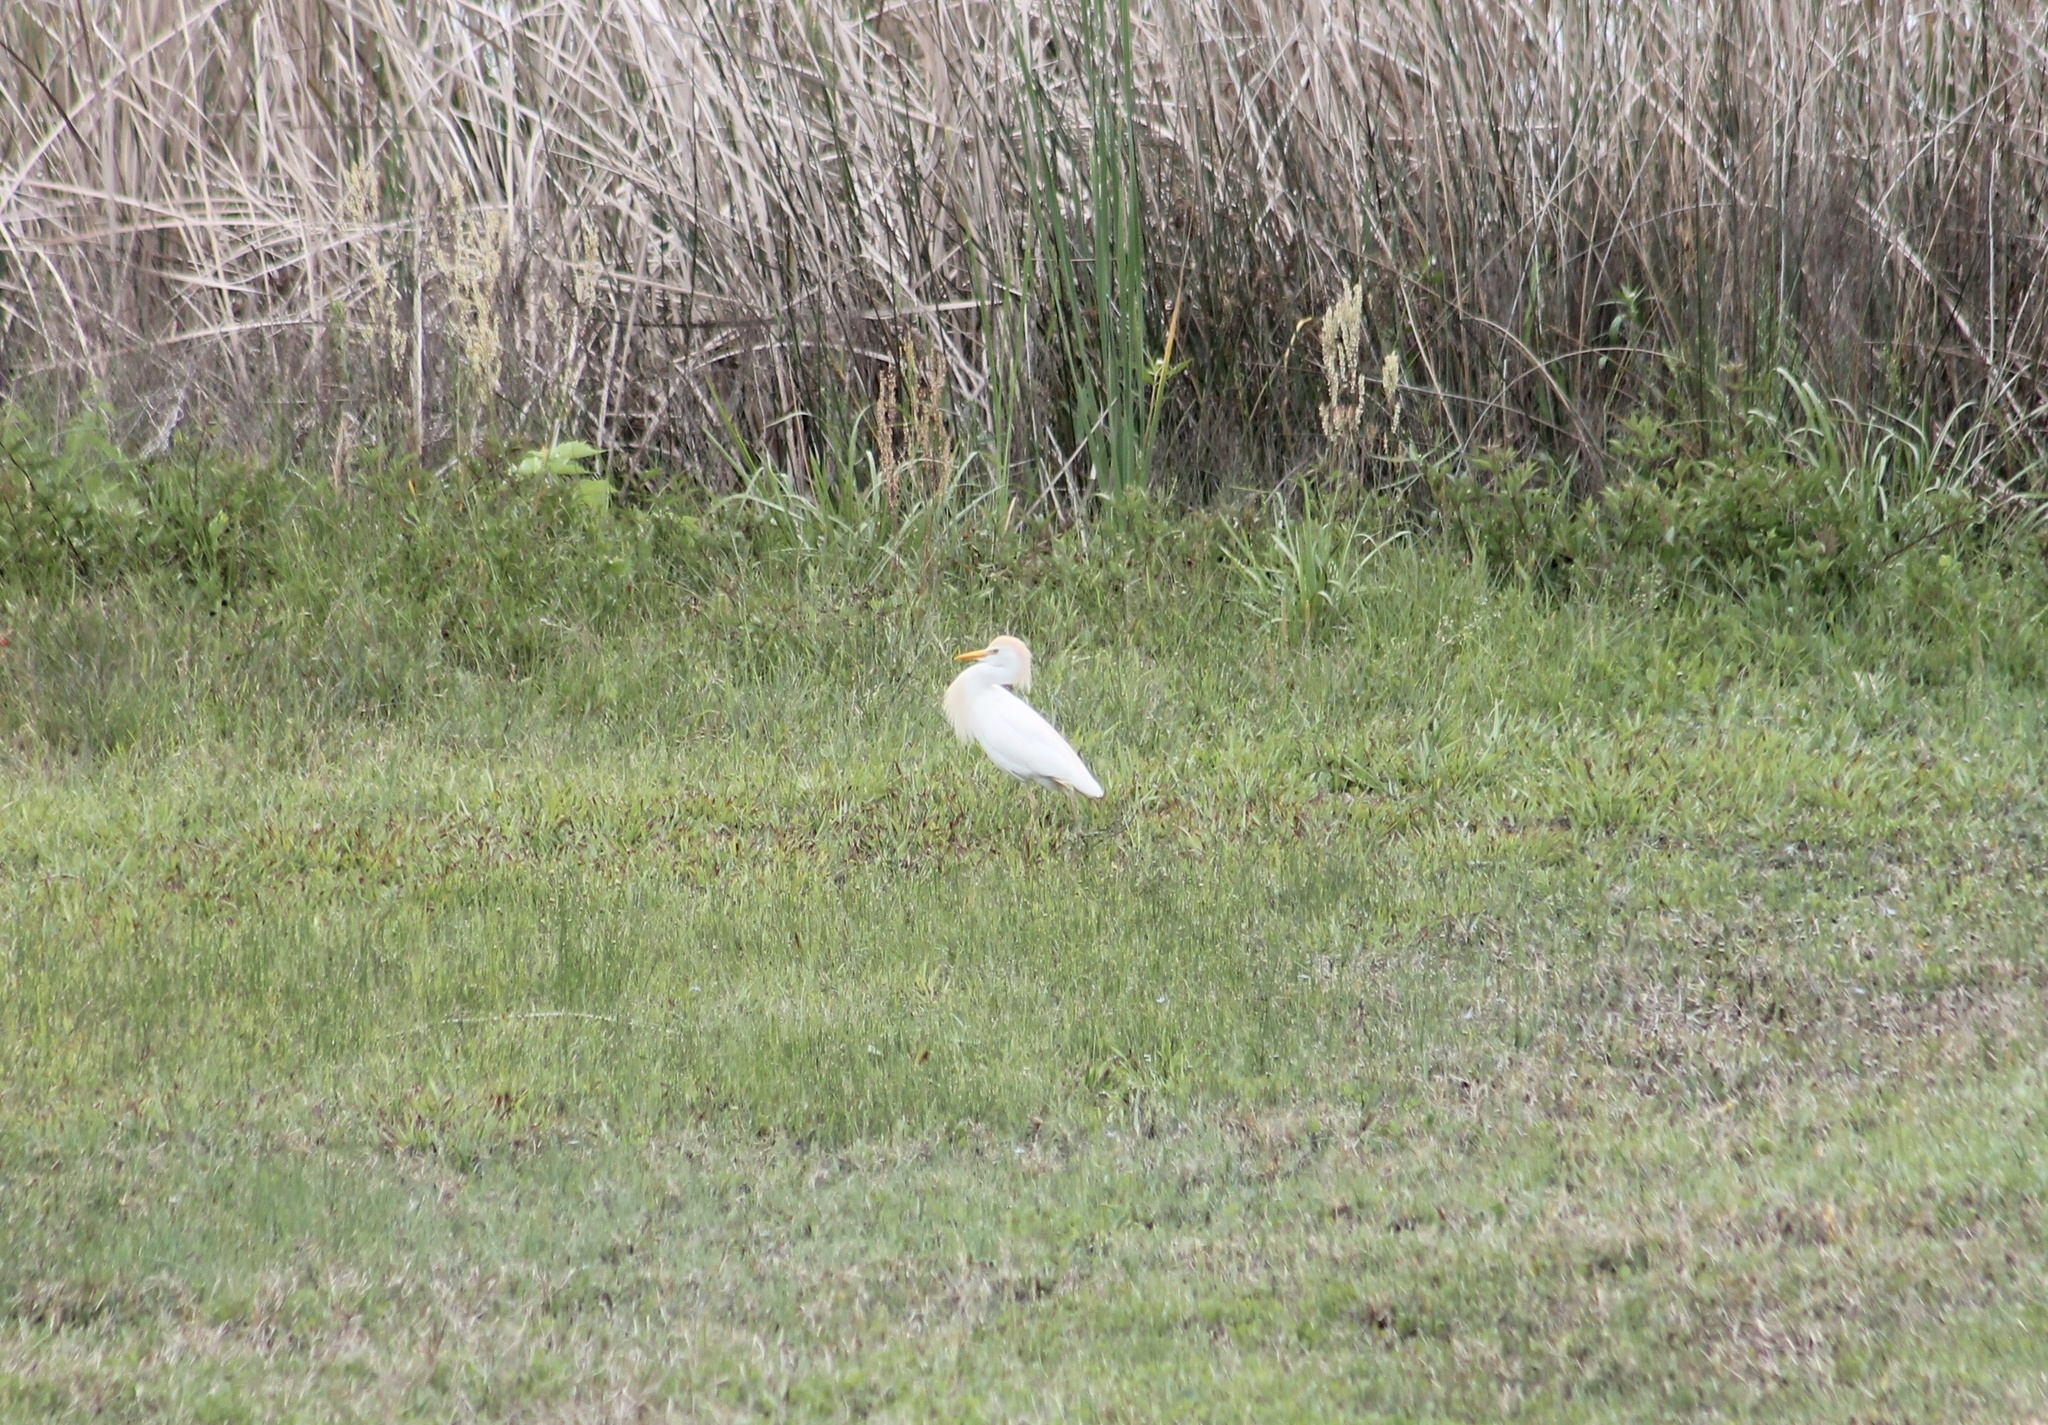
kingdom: Animalia
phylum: Chordata
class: Aves
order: Pelecaniformes
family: Ardeidae
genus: Bubulcus
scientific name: Bubulcus ibis
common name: Cattle egret
